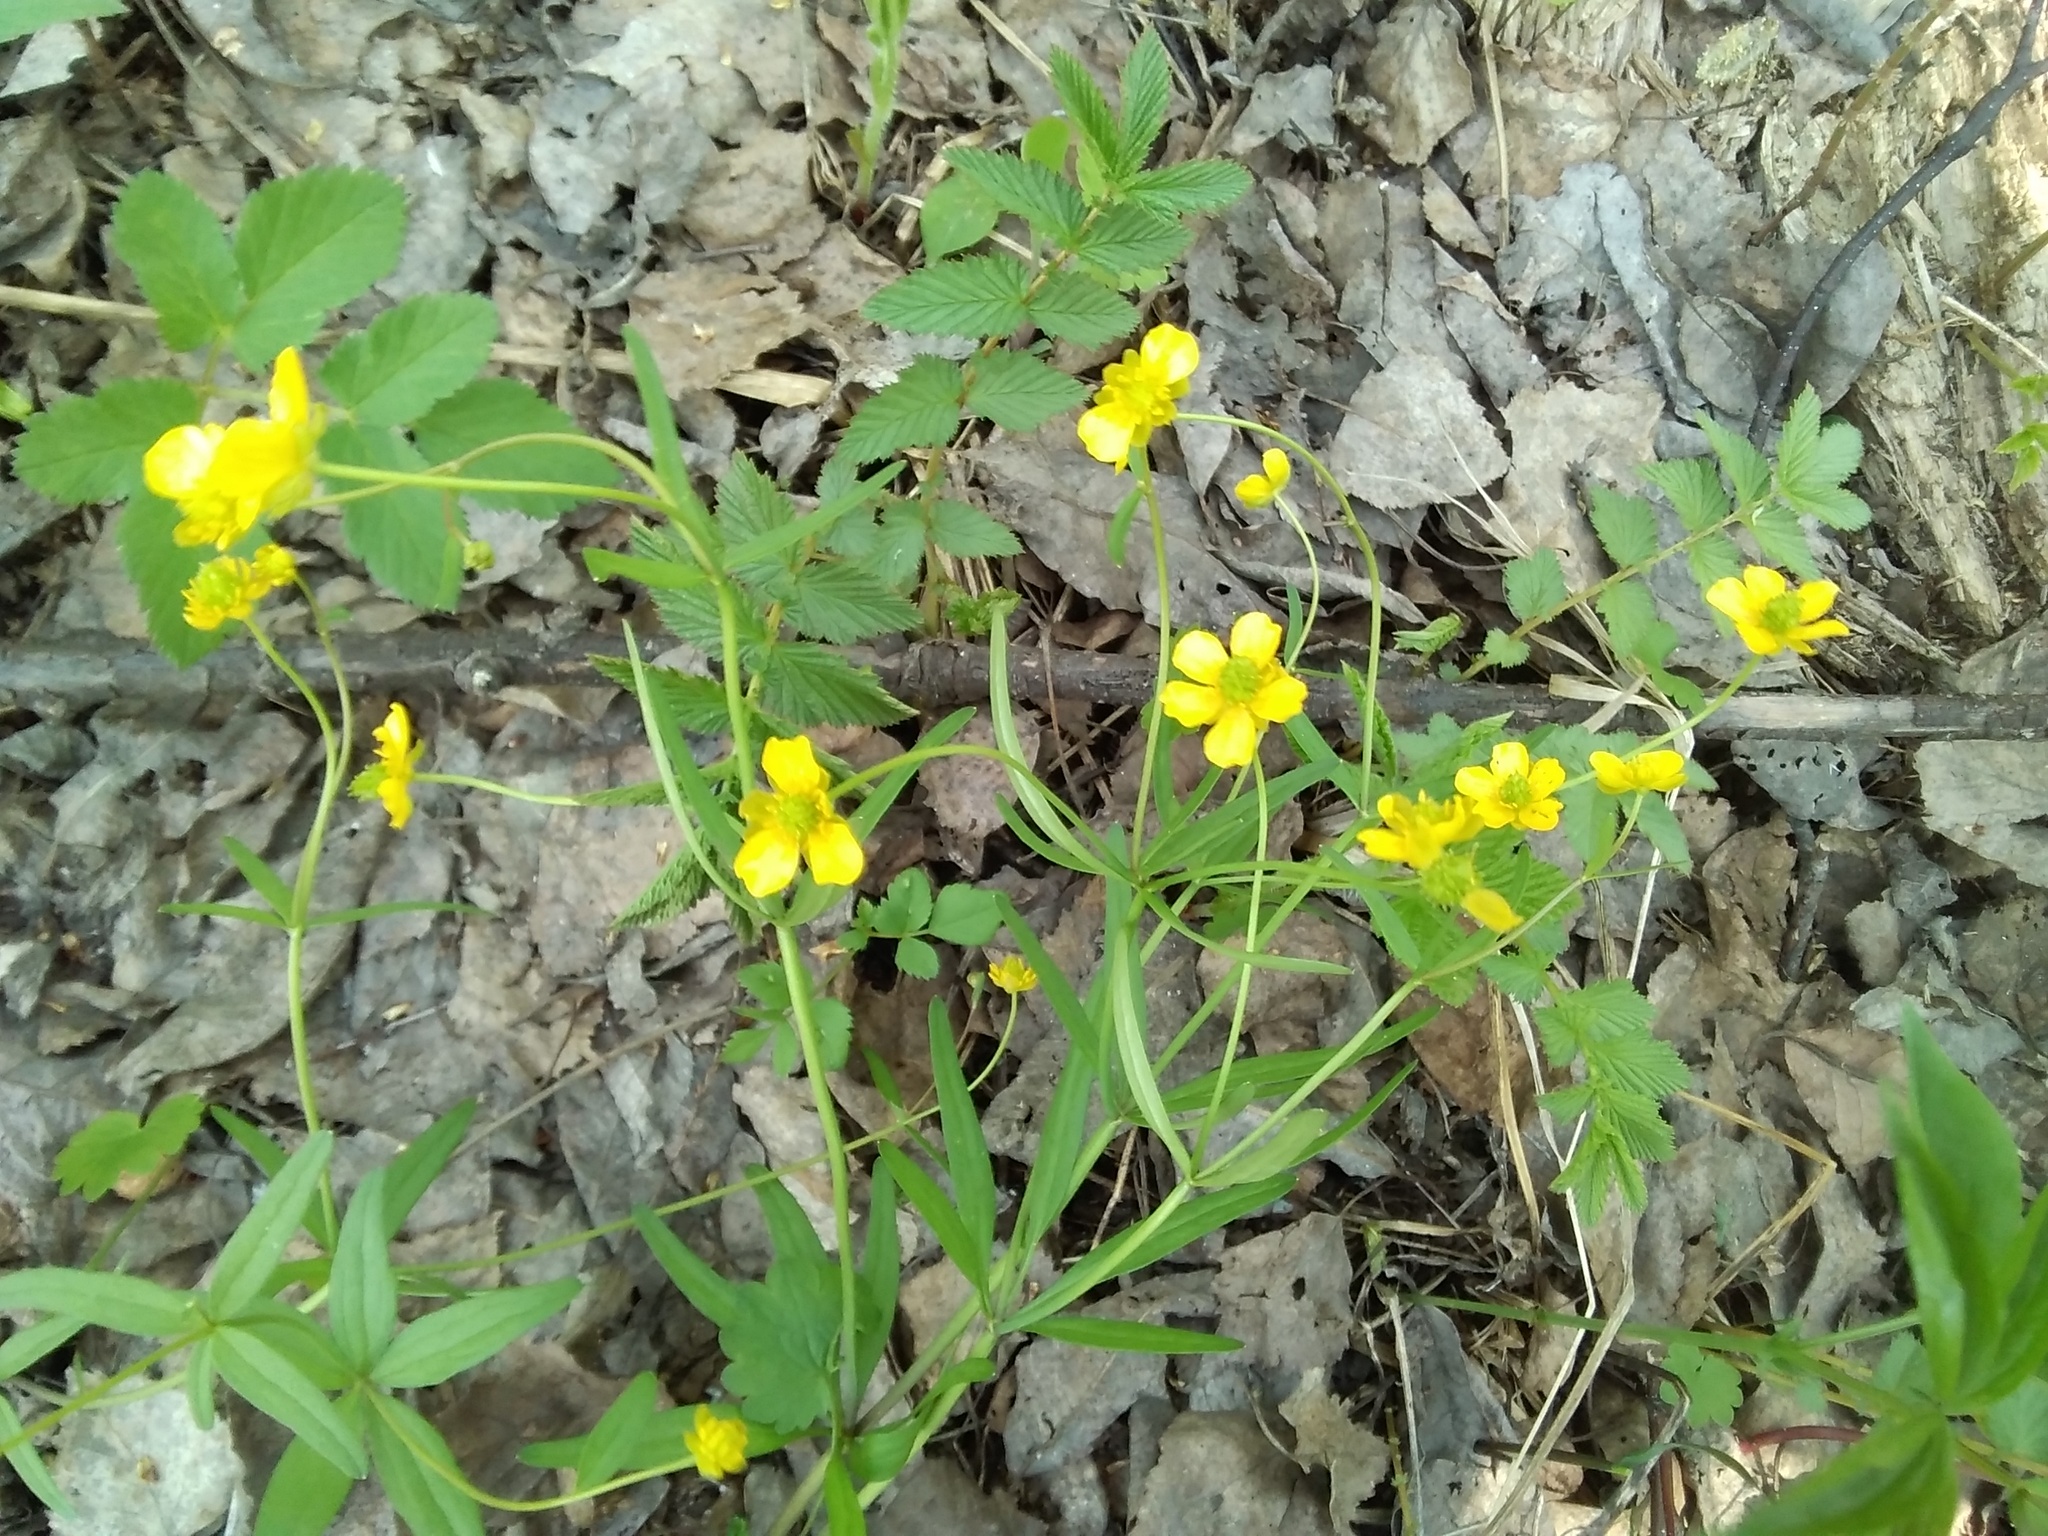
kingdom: Plantae
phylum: Tracheophyta
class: Magnoliopsida
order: Ranunculales
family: Ranunculaceae
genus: Ranunculus
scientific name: Ranunculus monophyllus
